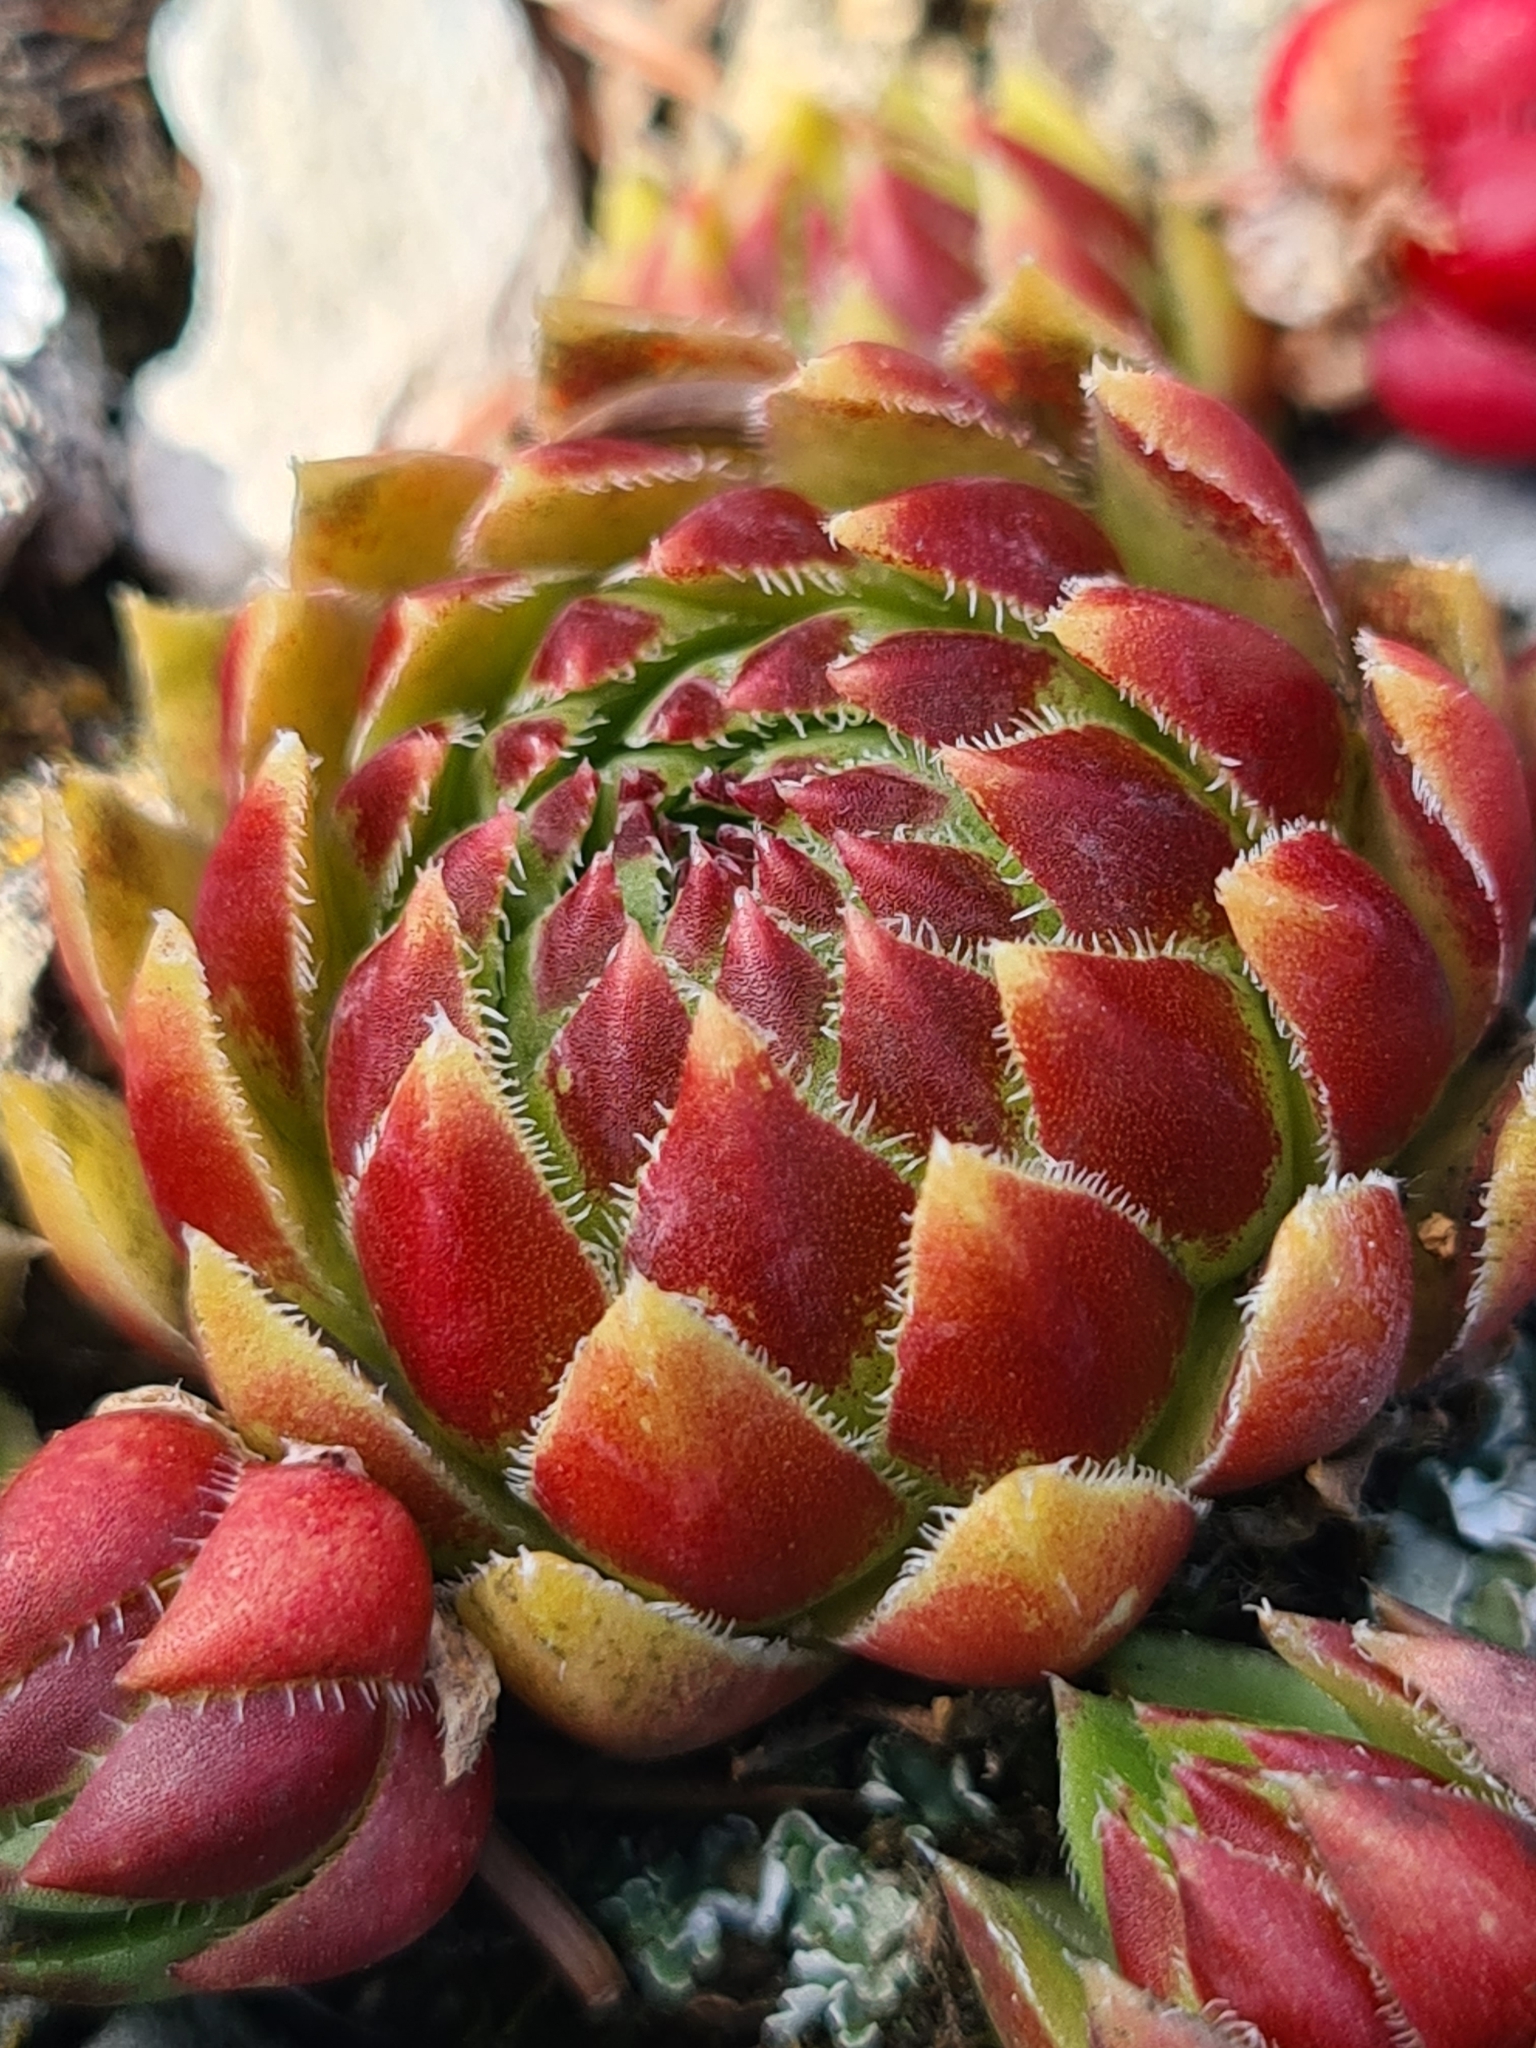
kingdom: Plantae
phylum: Tracheophyta
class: Magnoliopsida
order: Saxifragales
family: Crassulaceae
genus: Sempervivum
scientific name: Sempervivum globiferum
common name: Rolling hen-and-chicks
